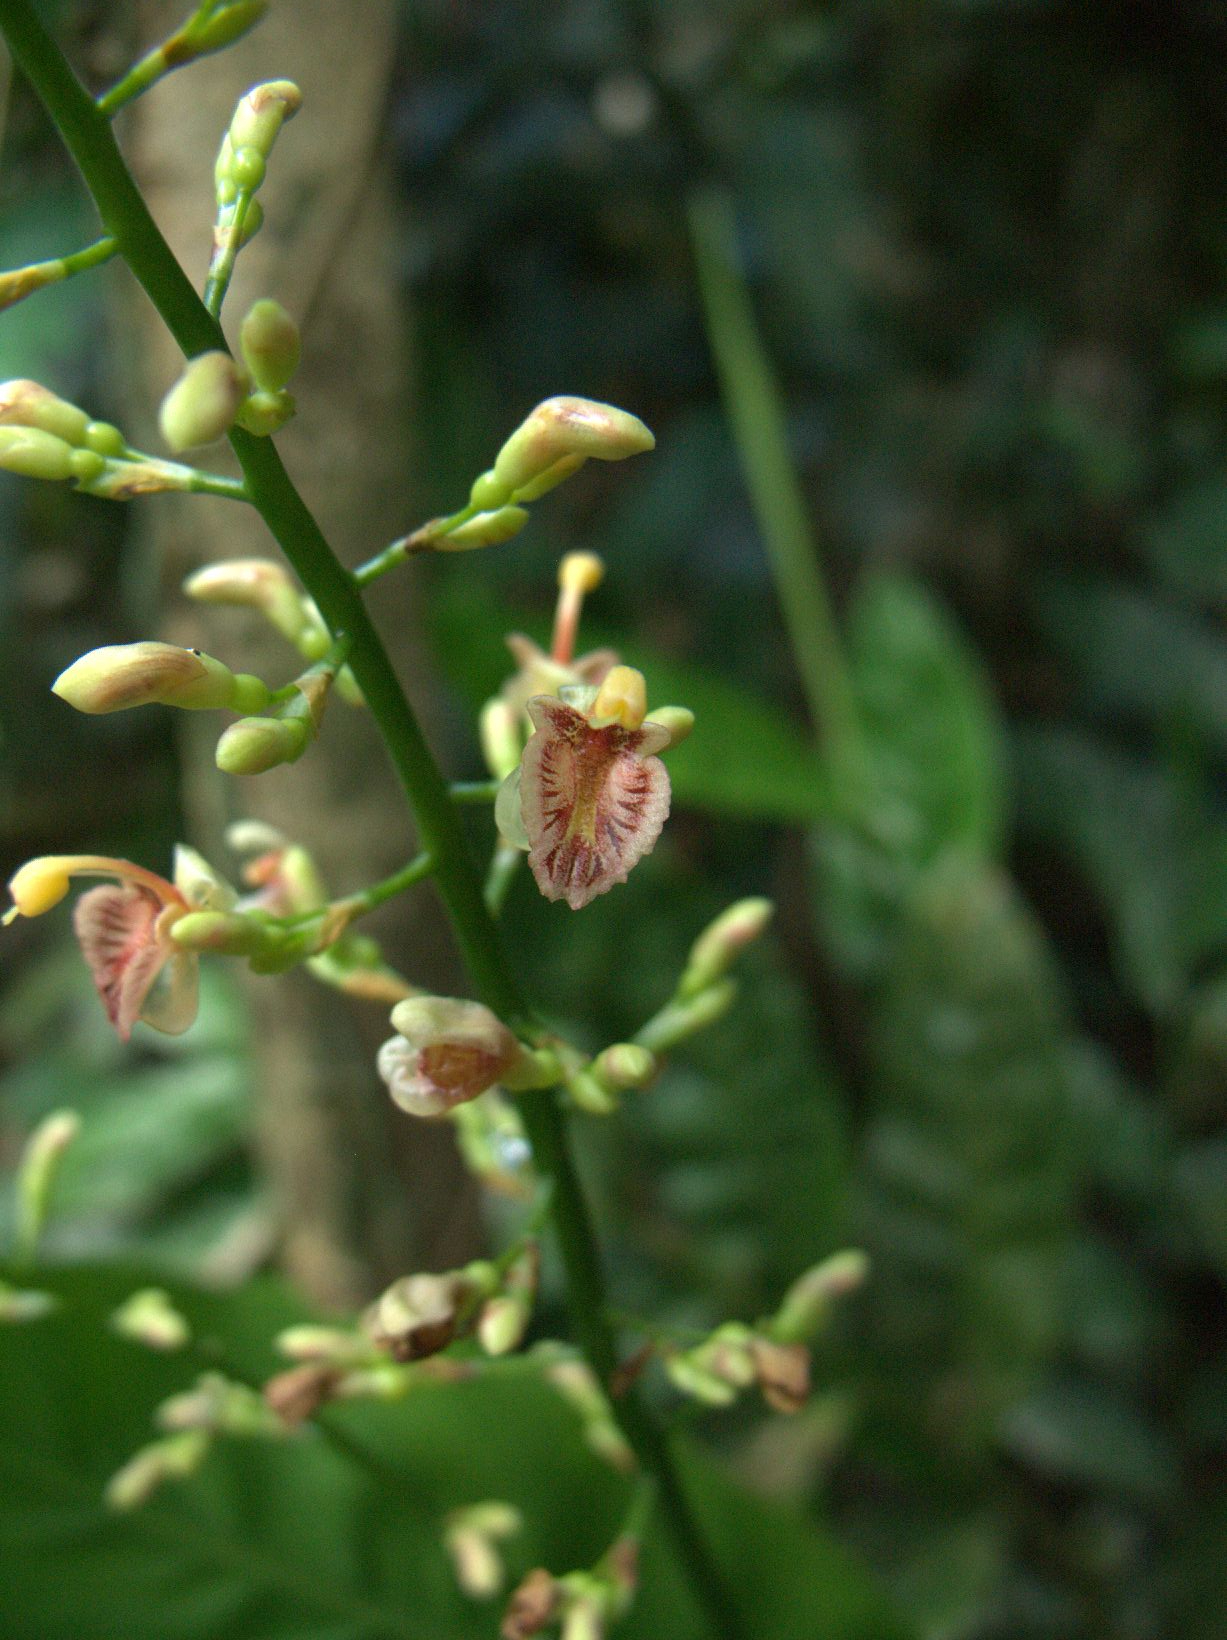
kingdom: Plantae
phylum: Tracheophyta
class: Liliopsida
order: Zingiberales
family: Zingiberaceae
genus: Alpinia
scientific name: Alpinia conchigera
